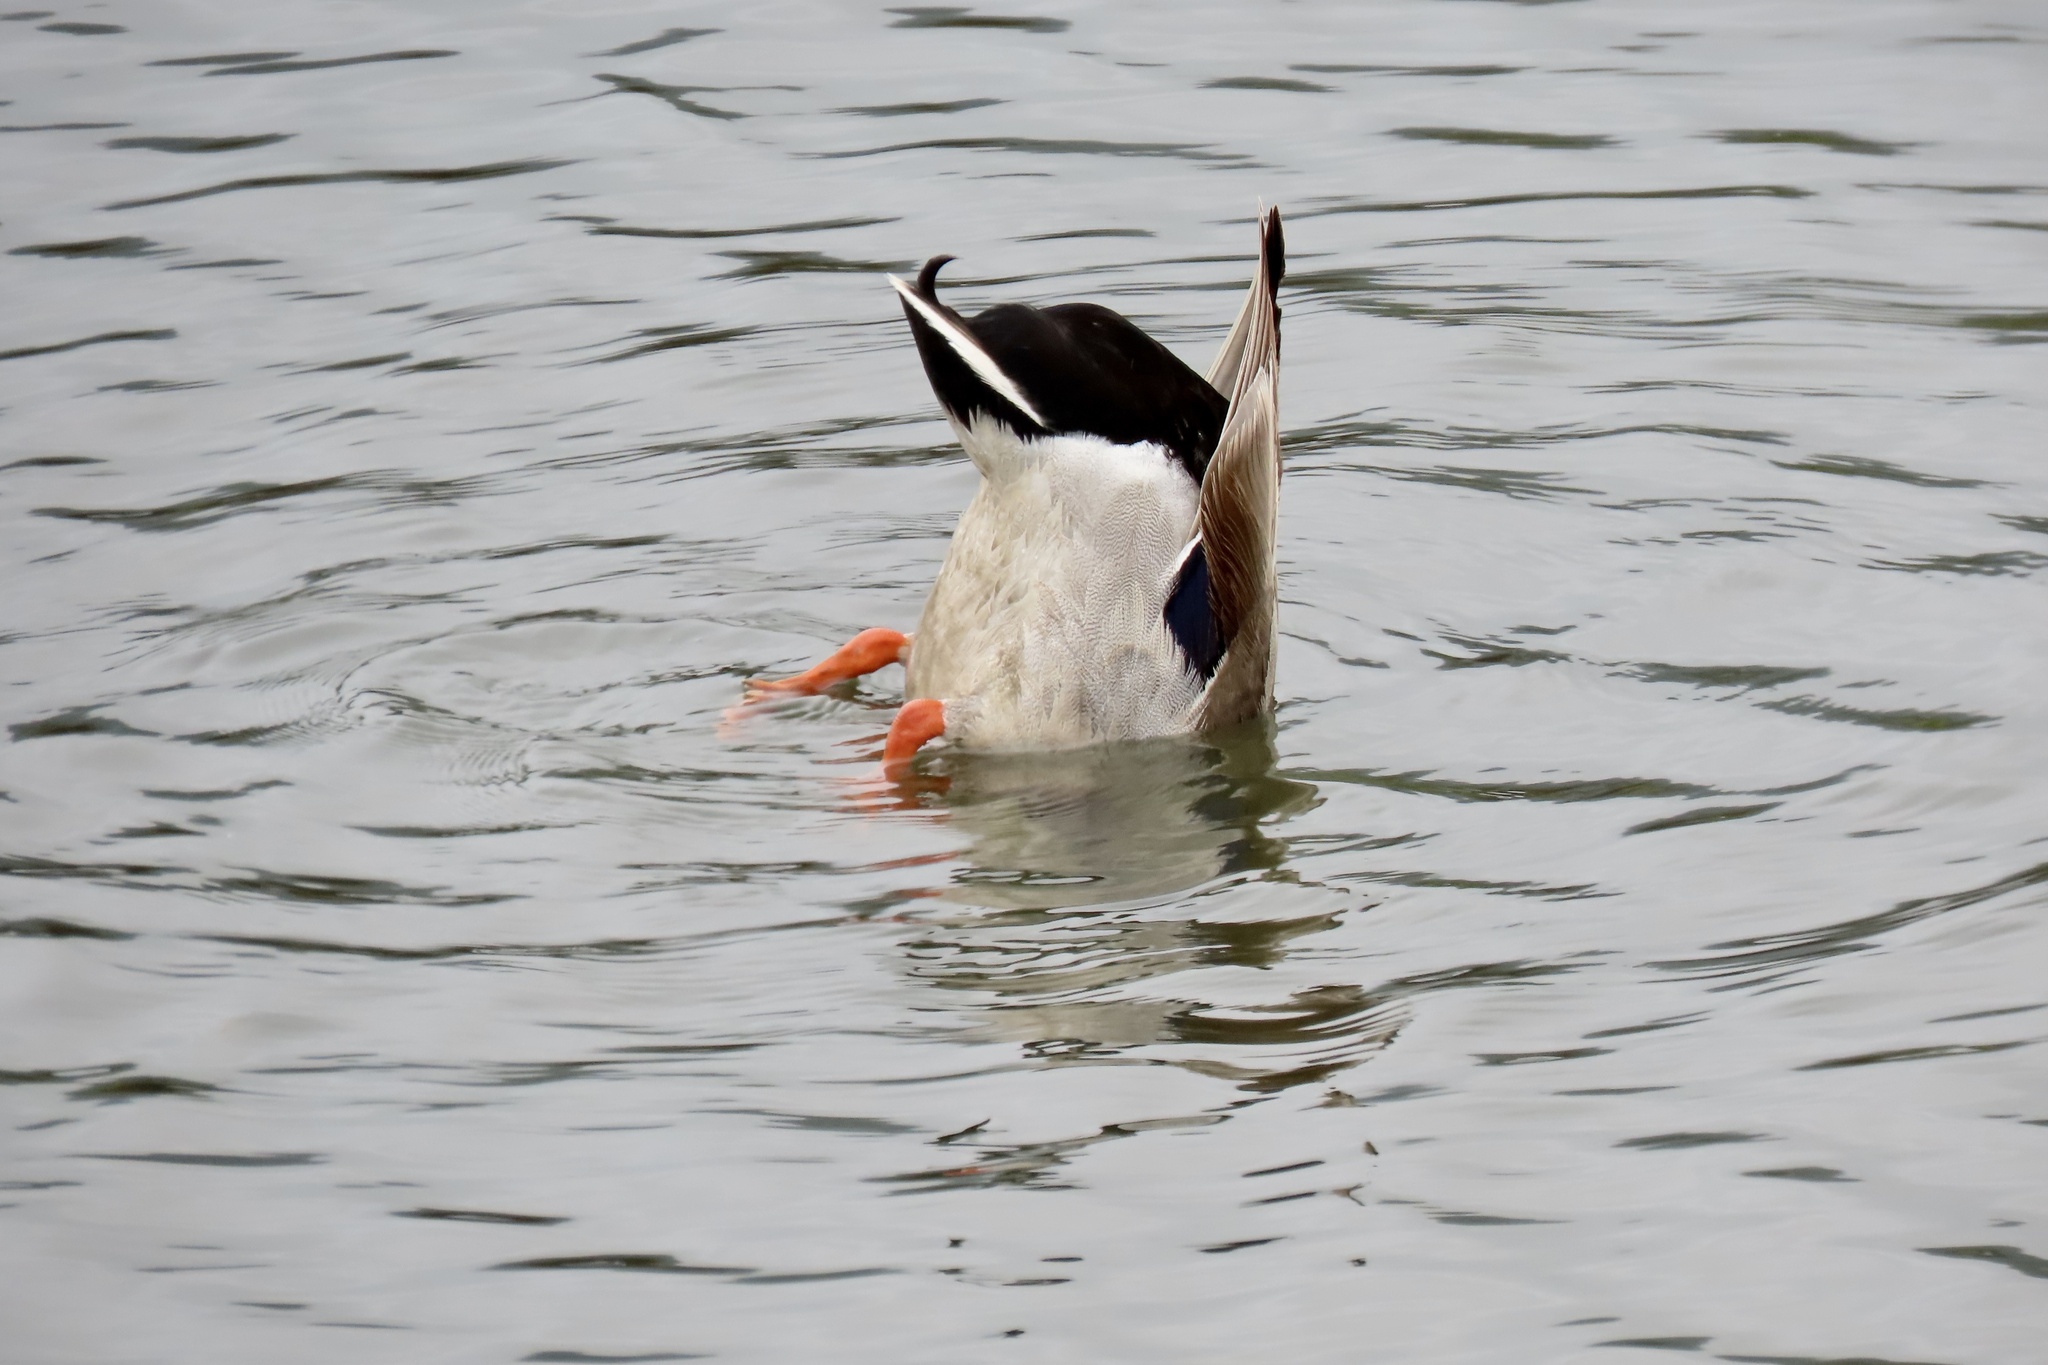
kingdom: Animalia
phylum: Chordata
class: Aves
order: Anseriformes
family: Anatidae
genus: Anas
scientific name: Anas platyrhynchos
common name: Mallard
